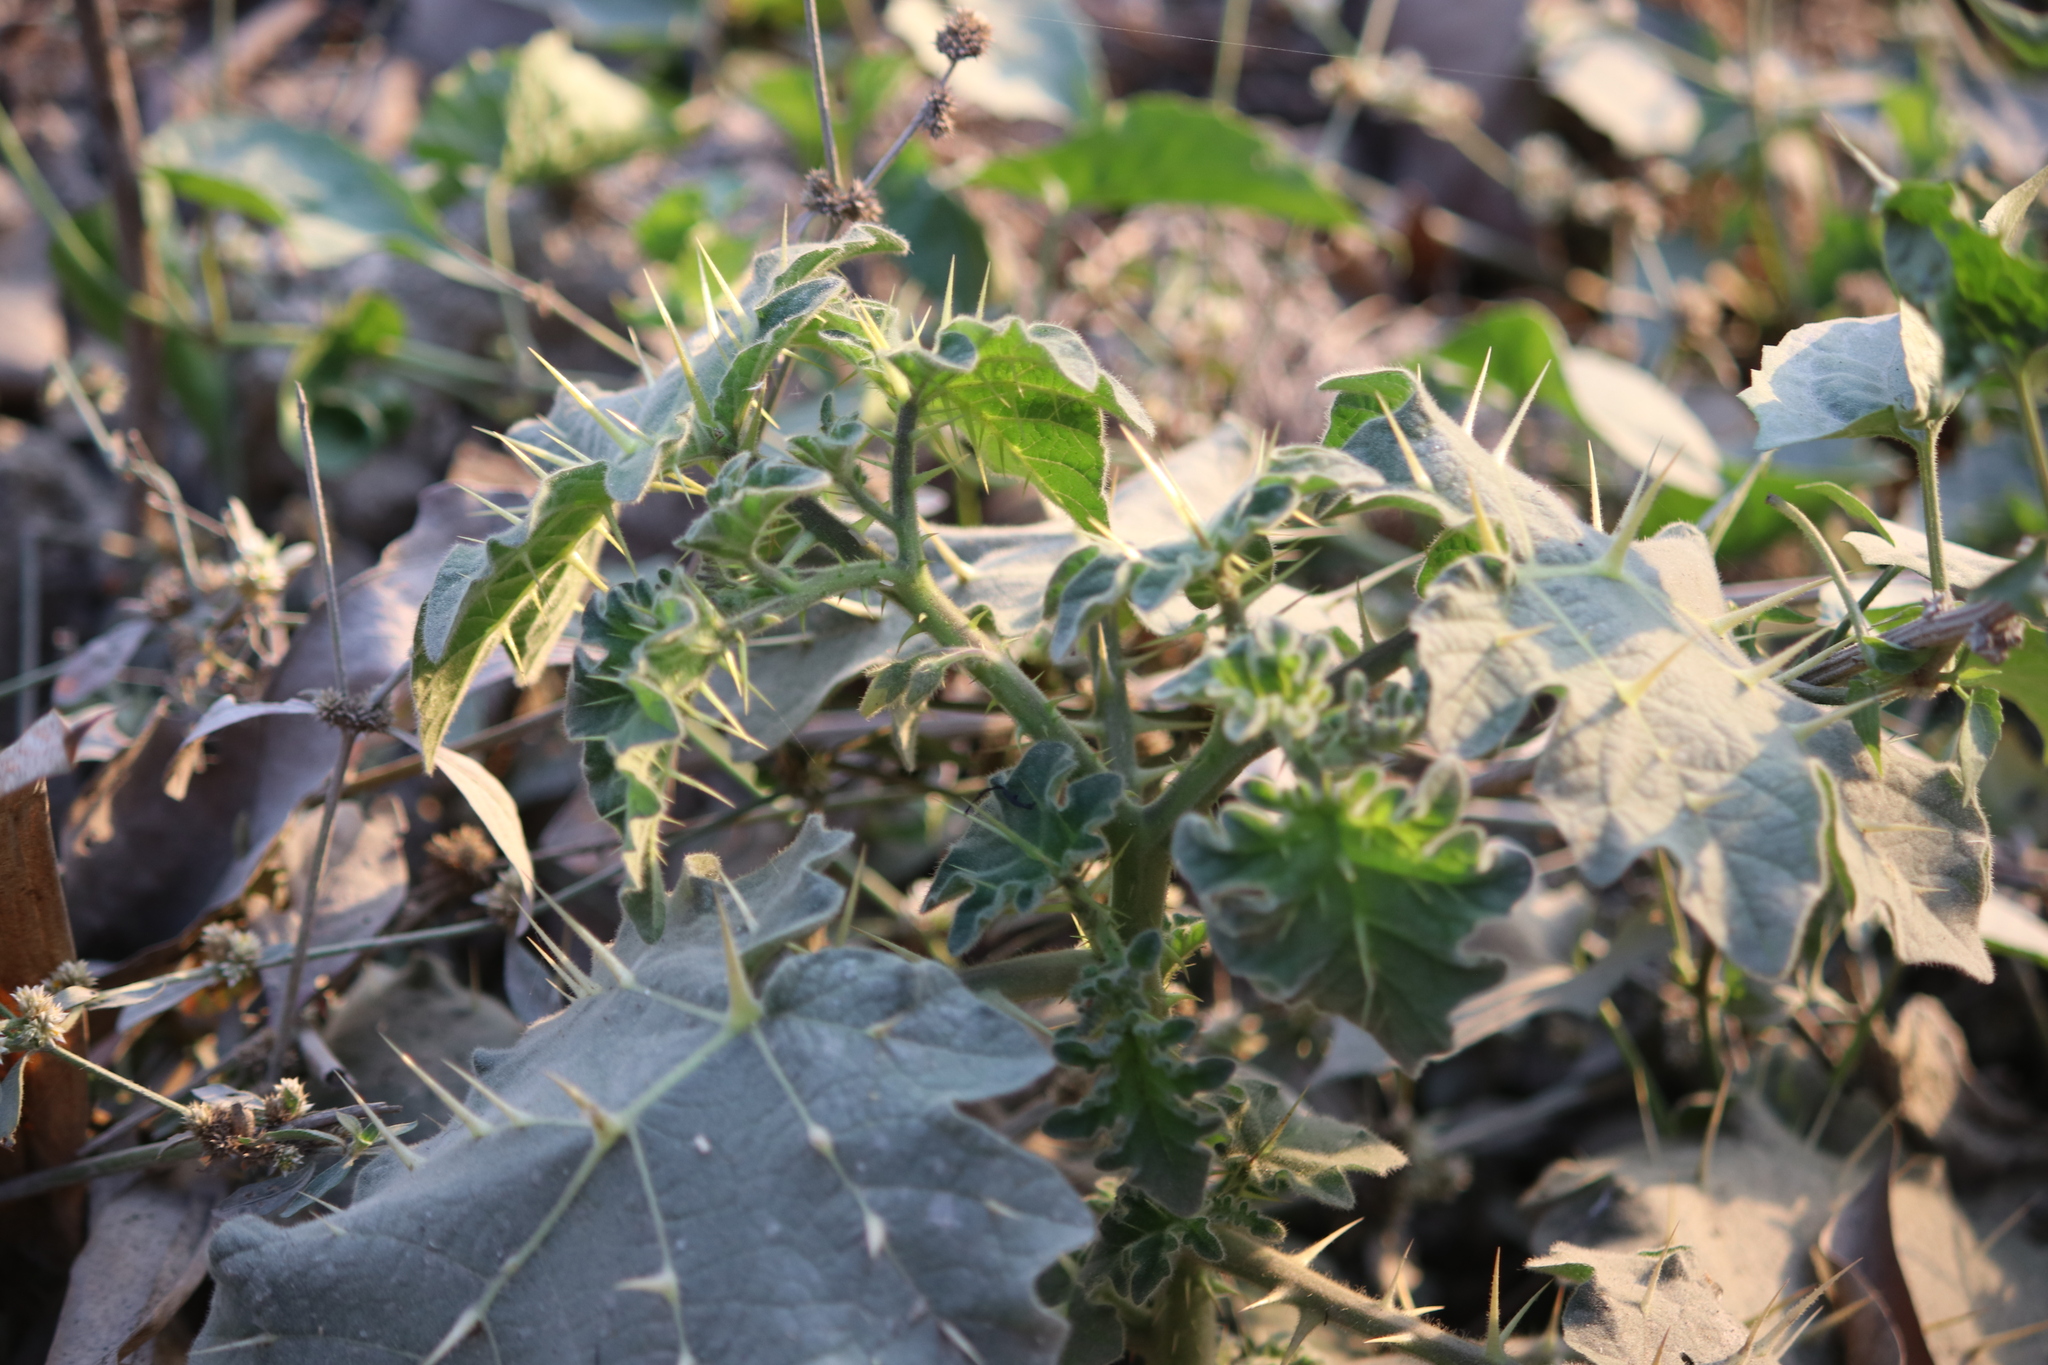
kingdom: Plantae
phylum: Tracheophyta
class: Magnoliopsida
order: Solanales
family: Solanaceae
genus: Solanum
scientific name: Solanum viarum
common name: Tropical soda apple
